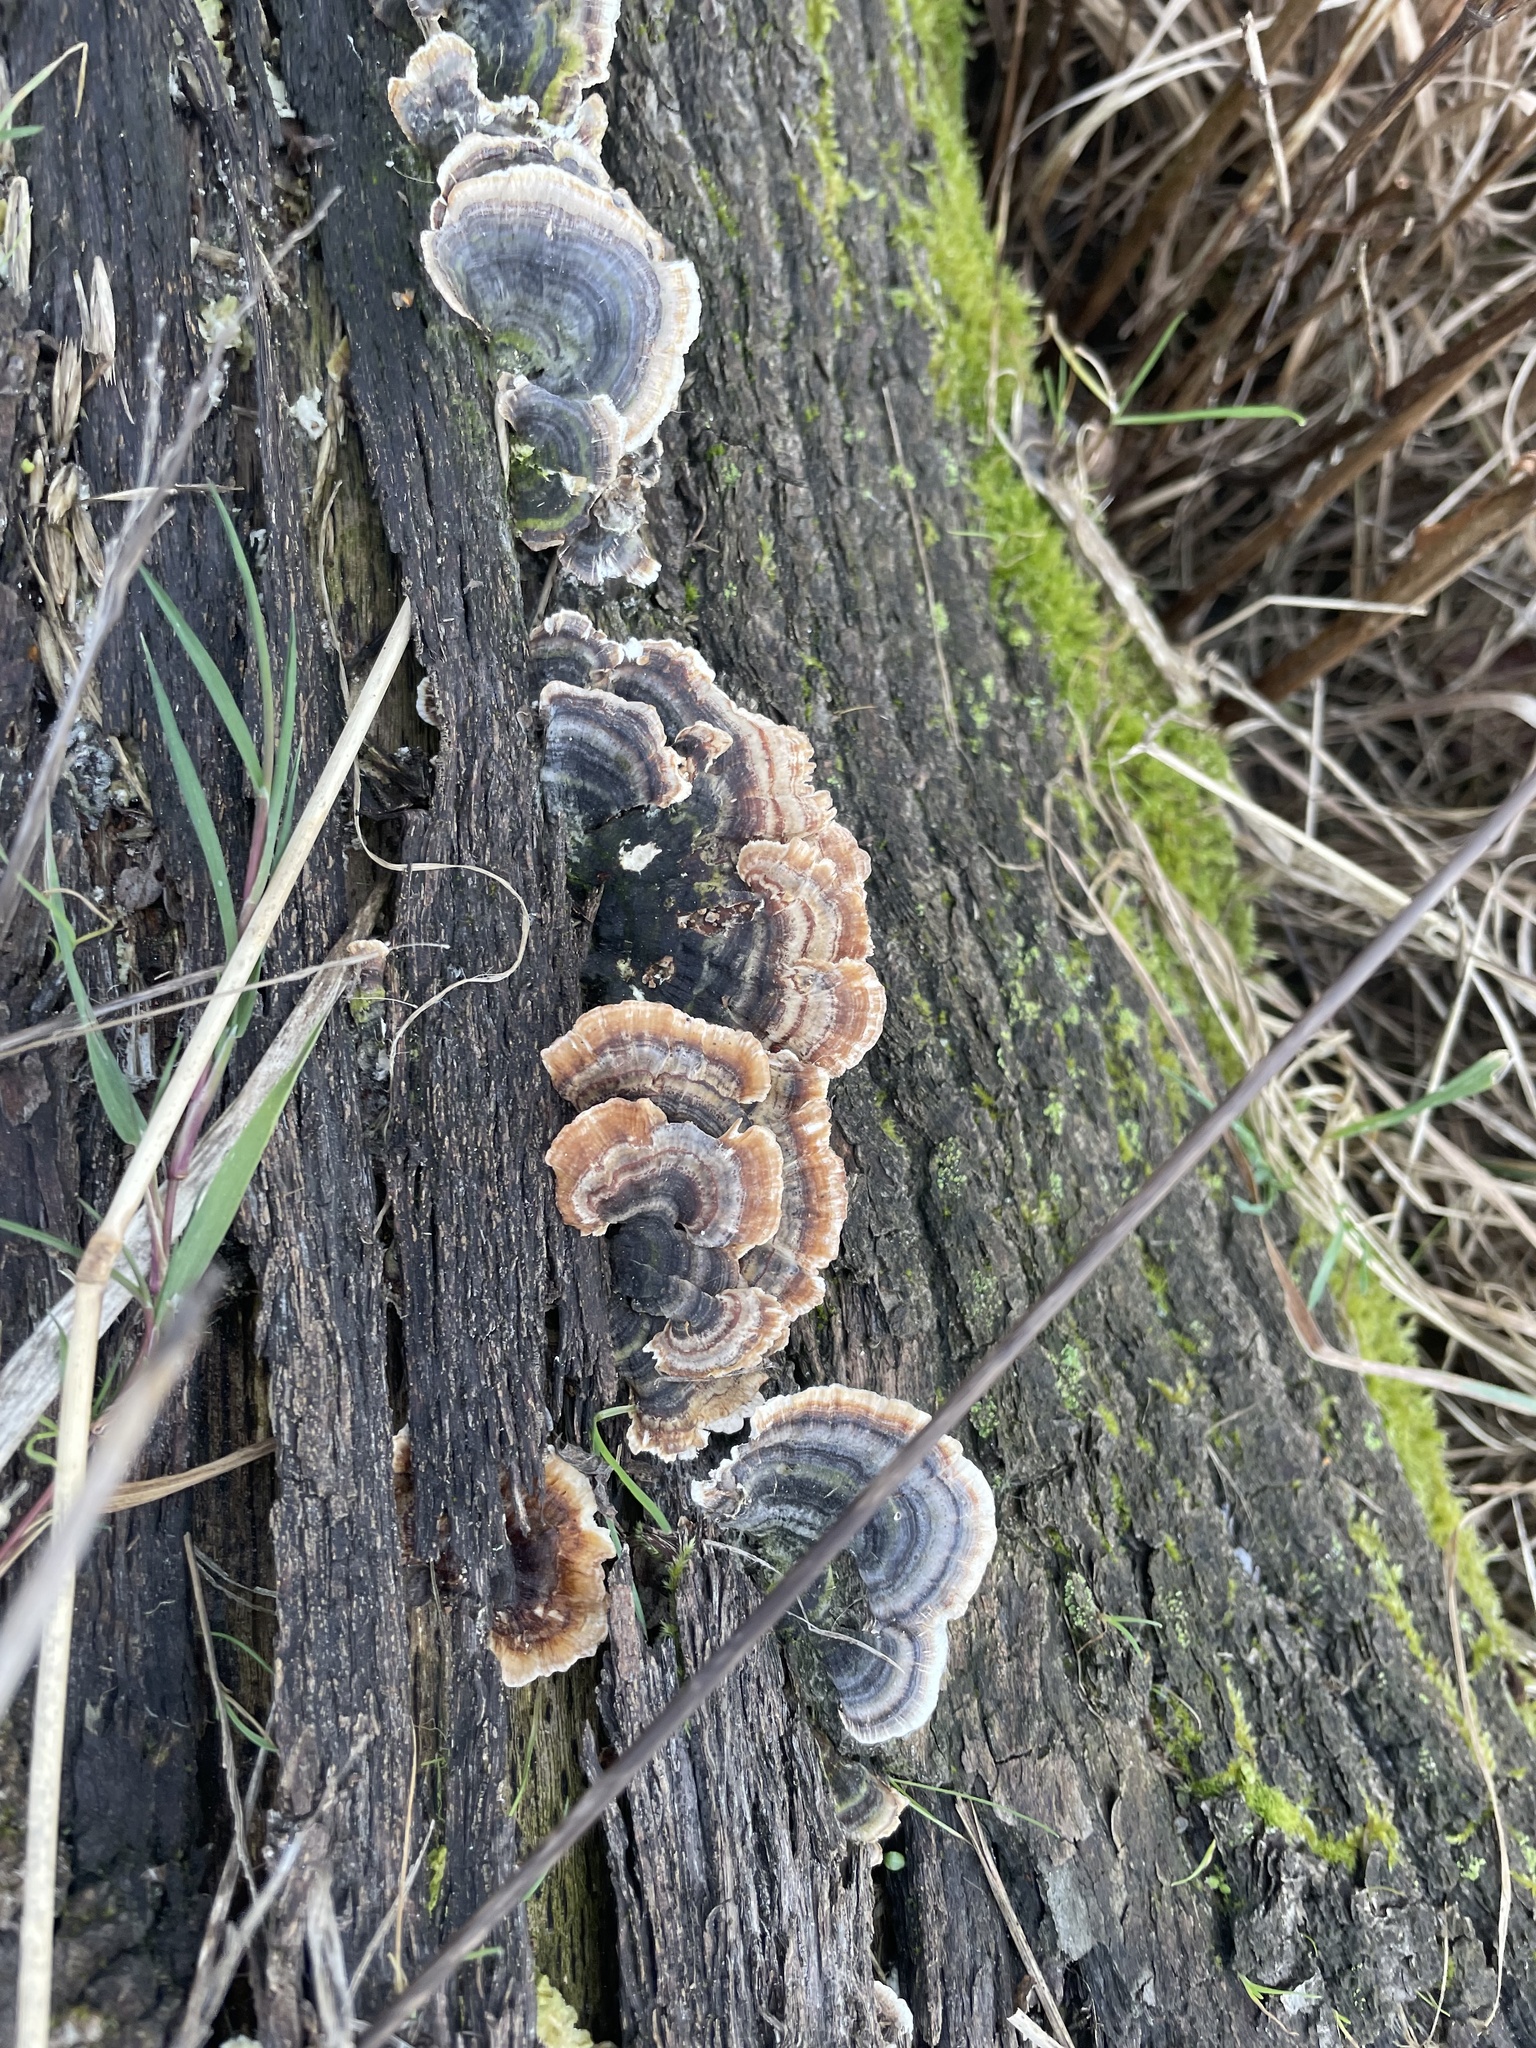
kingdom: Fungi
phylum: Basidiomycota
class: Agaricomycetes
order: Polyporales
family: Polyporaceae
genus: Trametes
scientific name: Trametes versicolor
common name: Turkeytail
